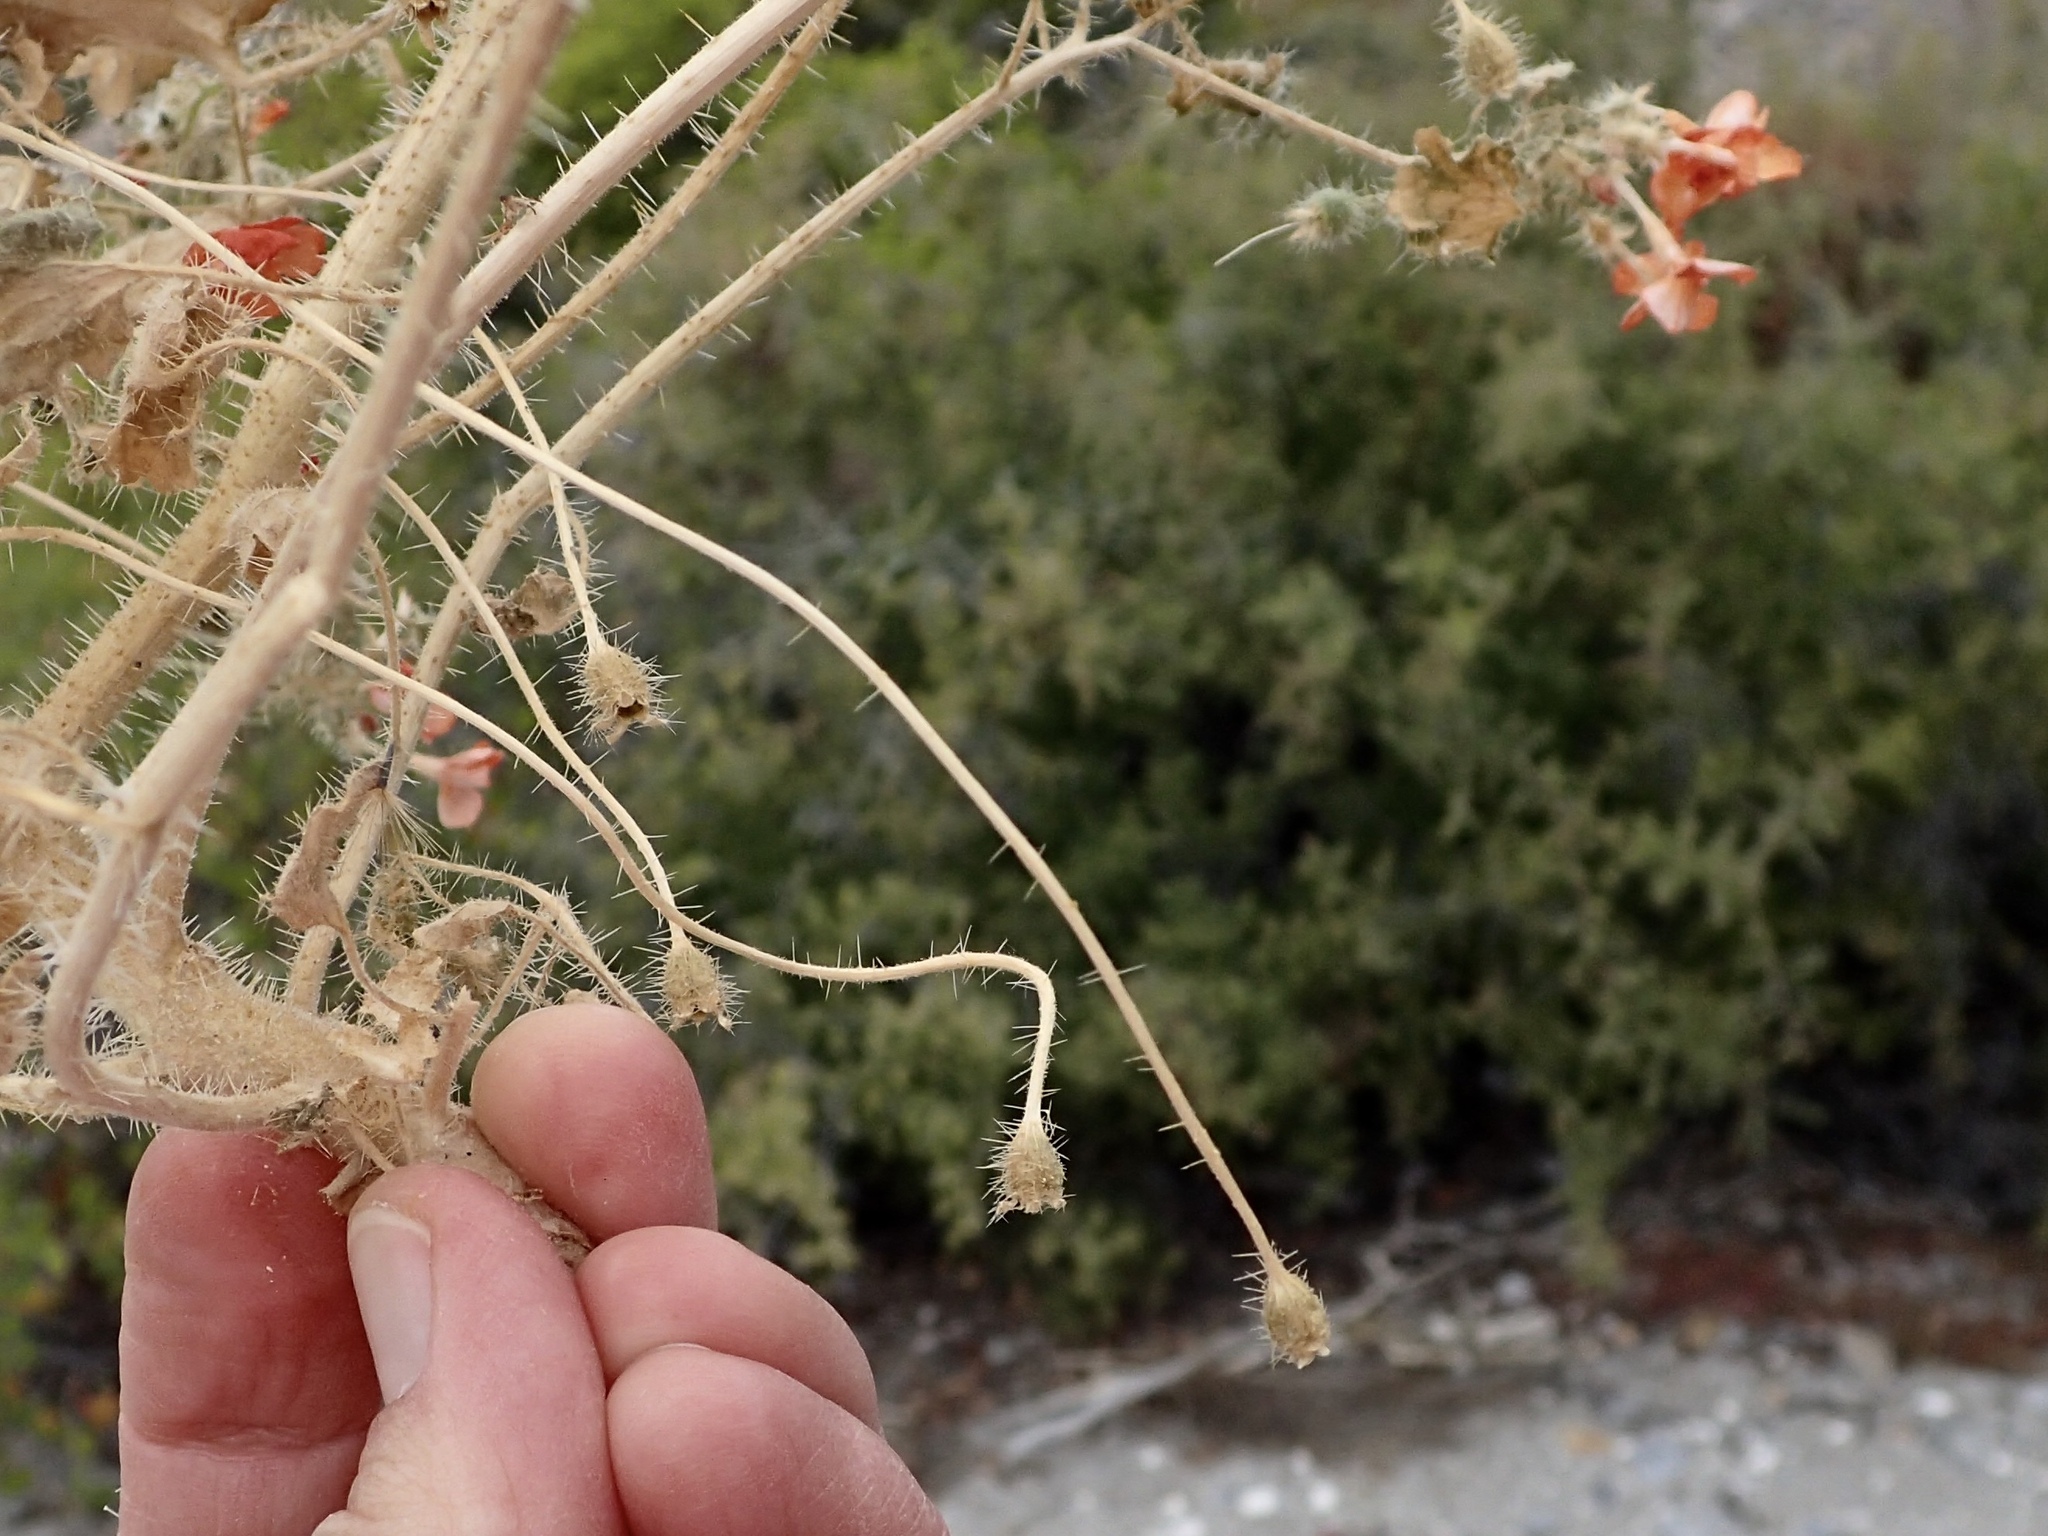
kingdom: Plantae
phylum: Tracheophyta
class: Magnoliopsida
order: Cornales
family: Loasaceae
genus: Eucnide
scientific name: Eucnide aurea
